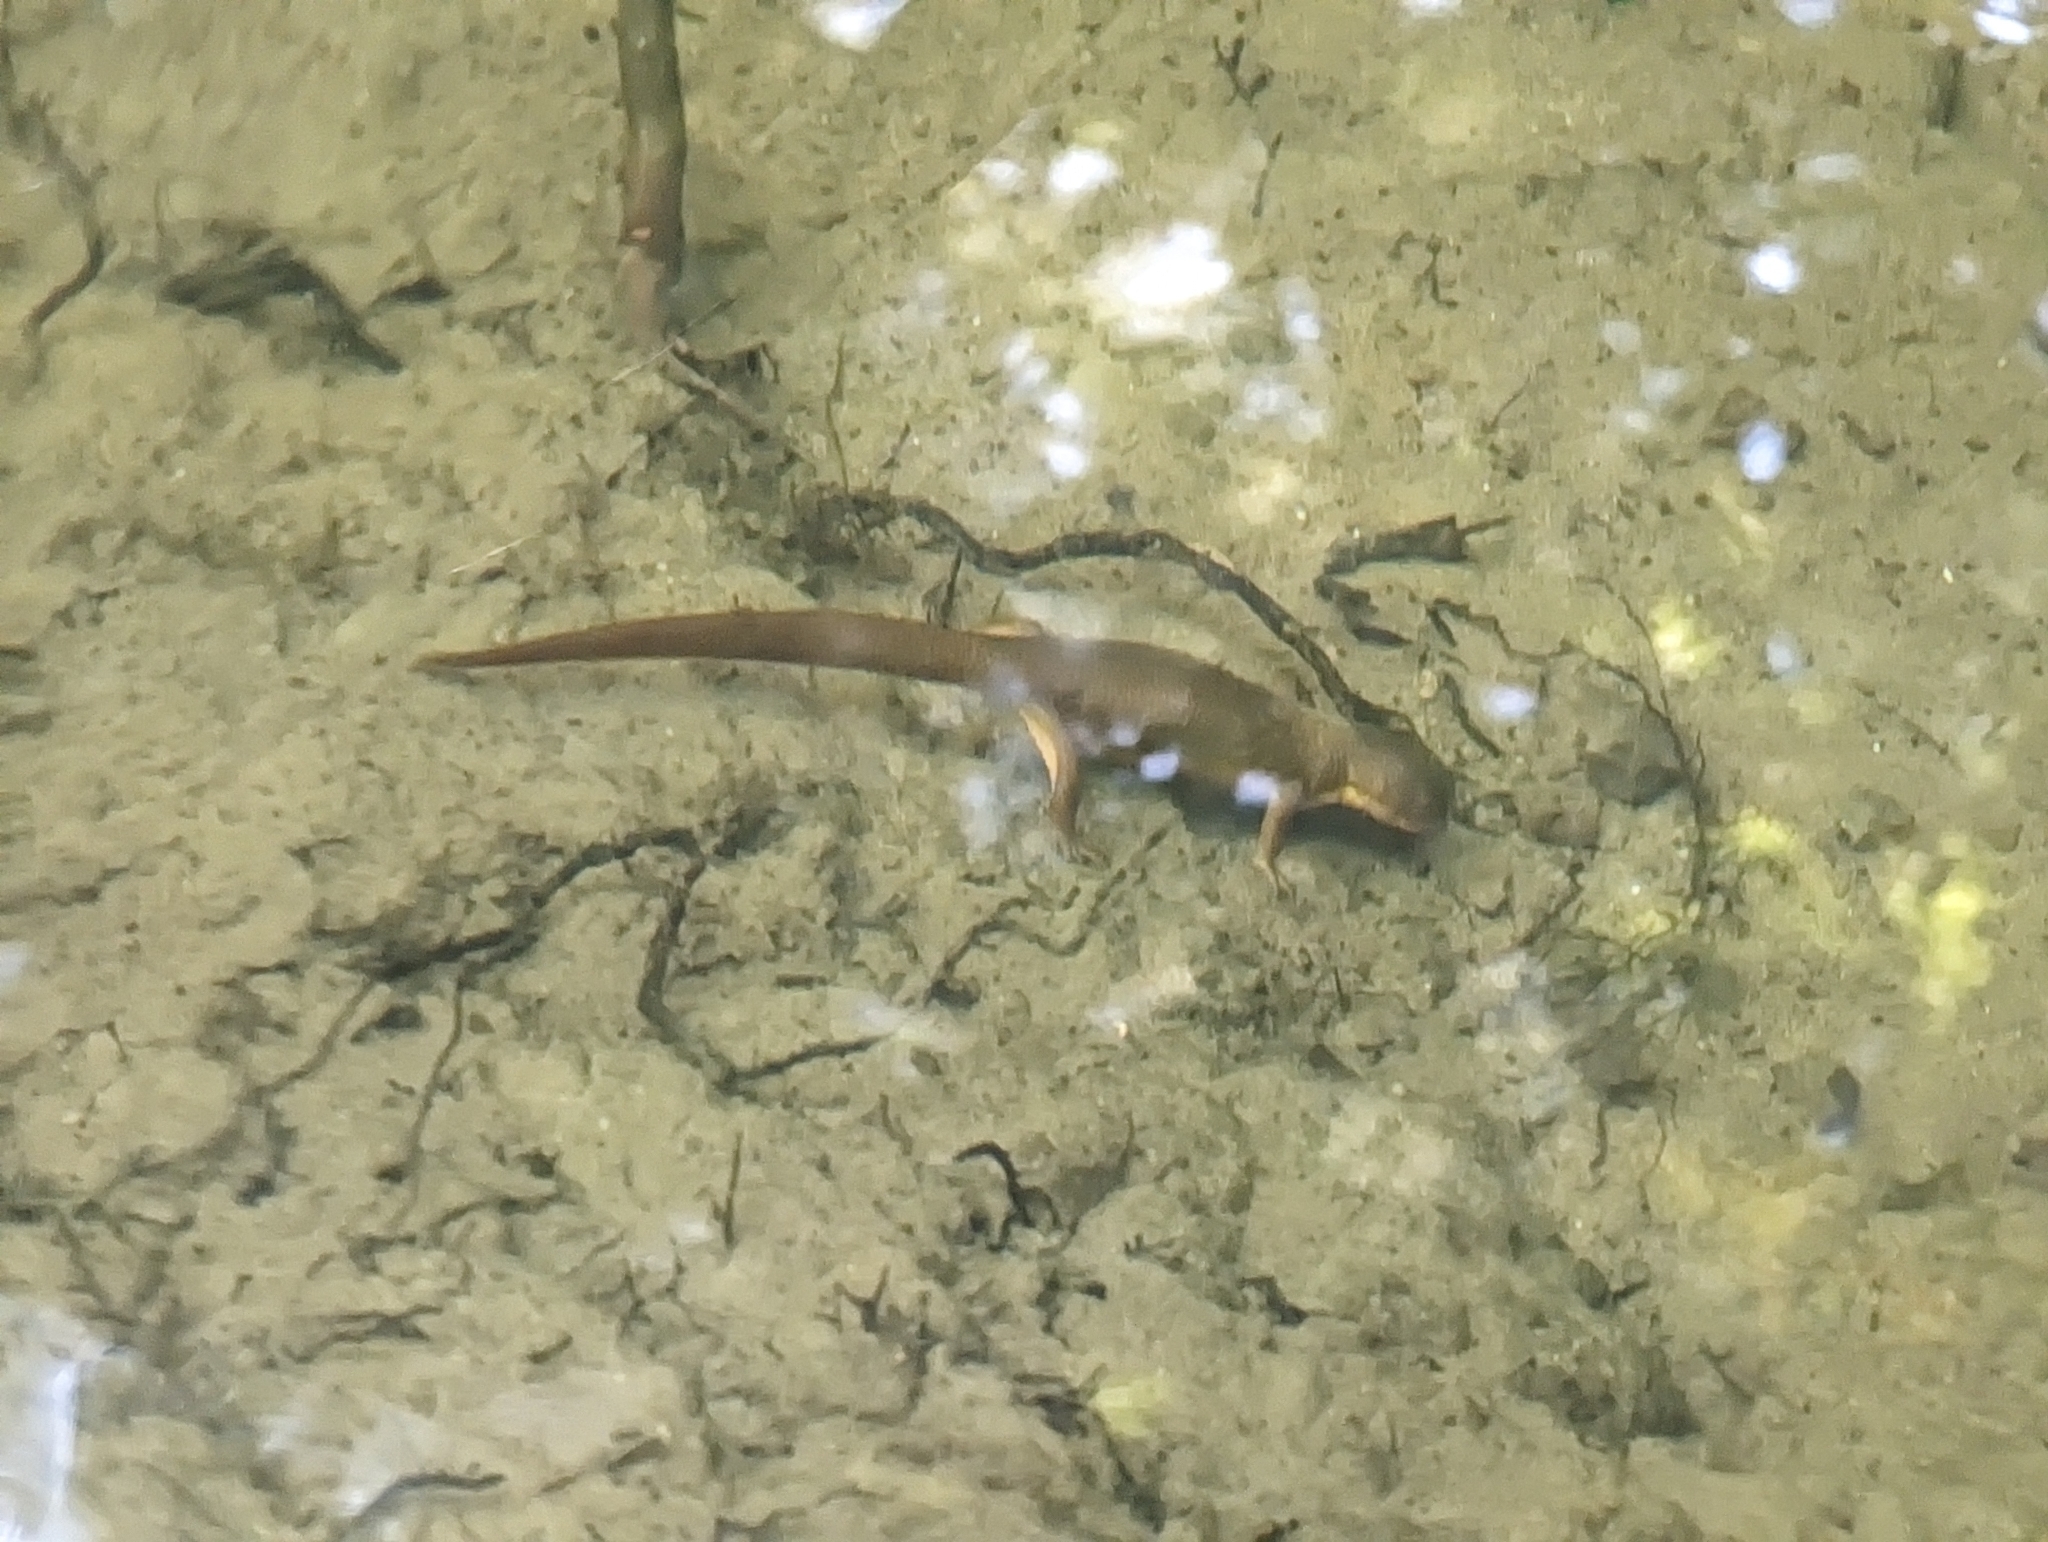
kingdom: Animalia
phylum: Chordata
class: Amphibia
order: Caudata
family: Salamandridae
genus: Taricha
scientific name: Taricha granulosa
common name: Roughskin newt
